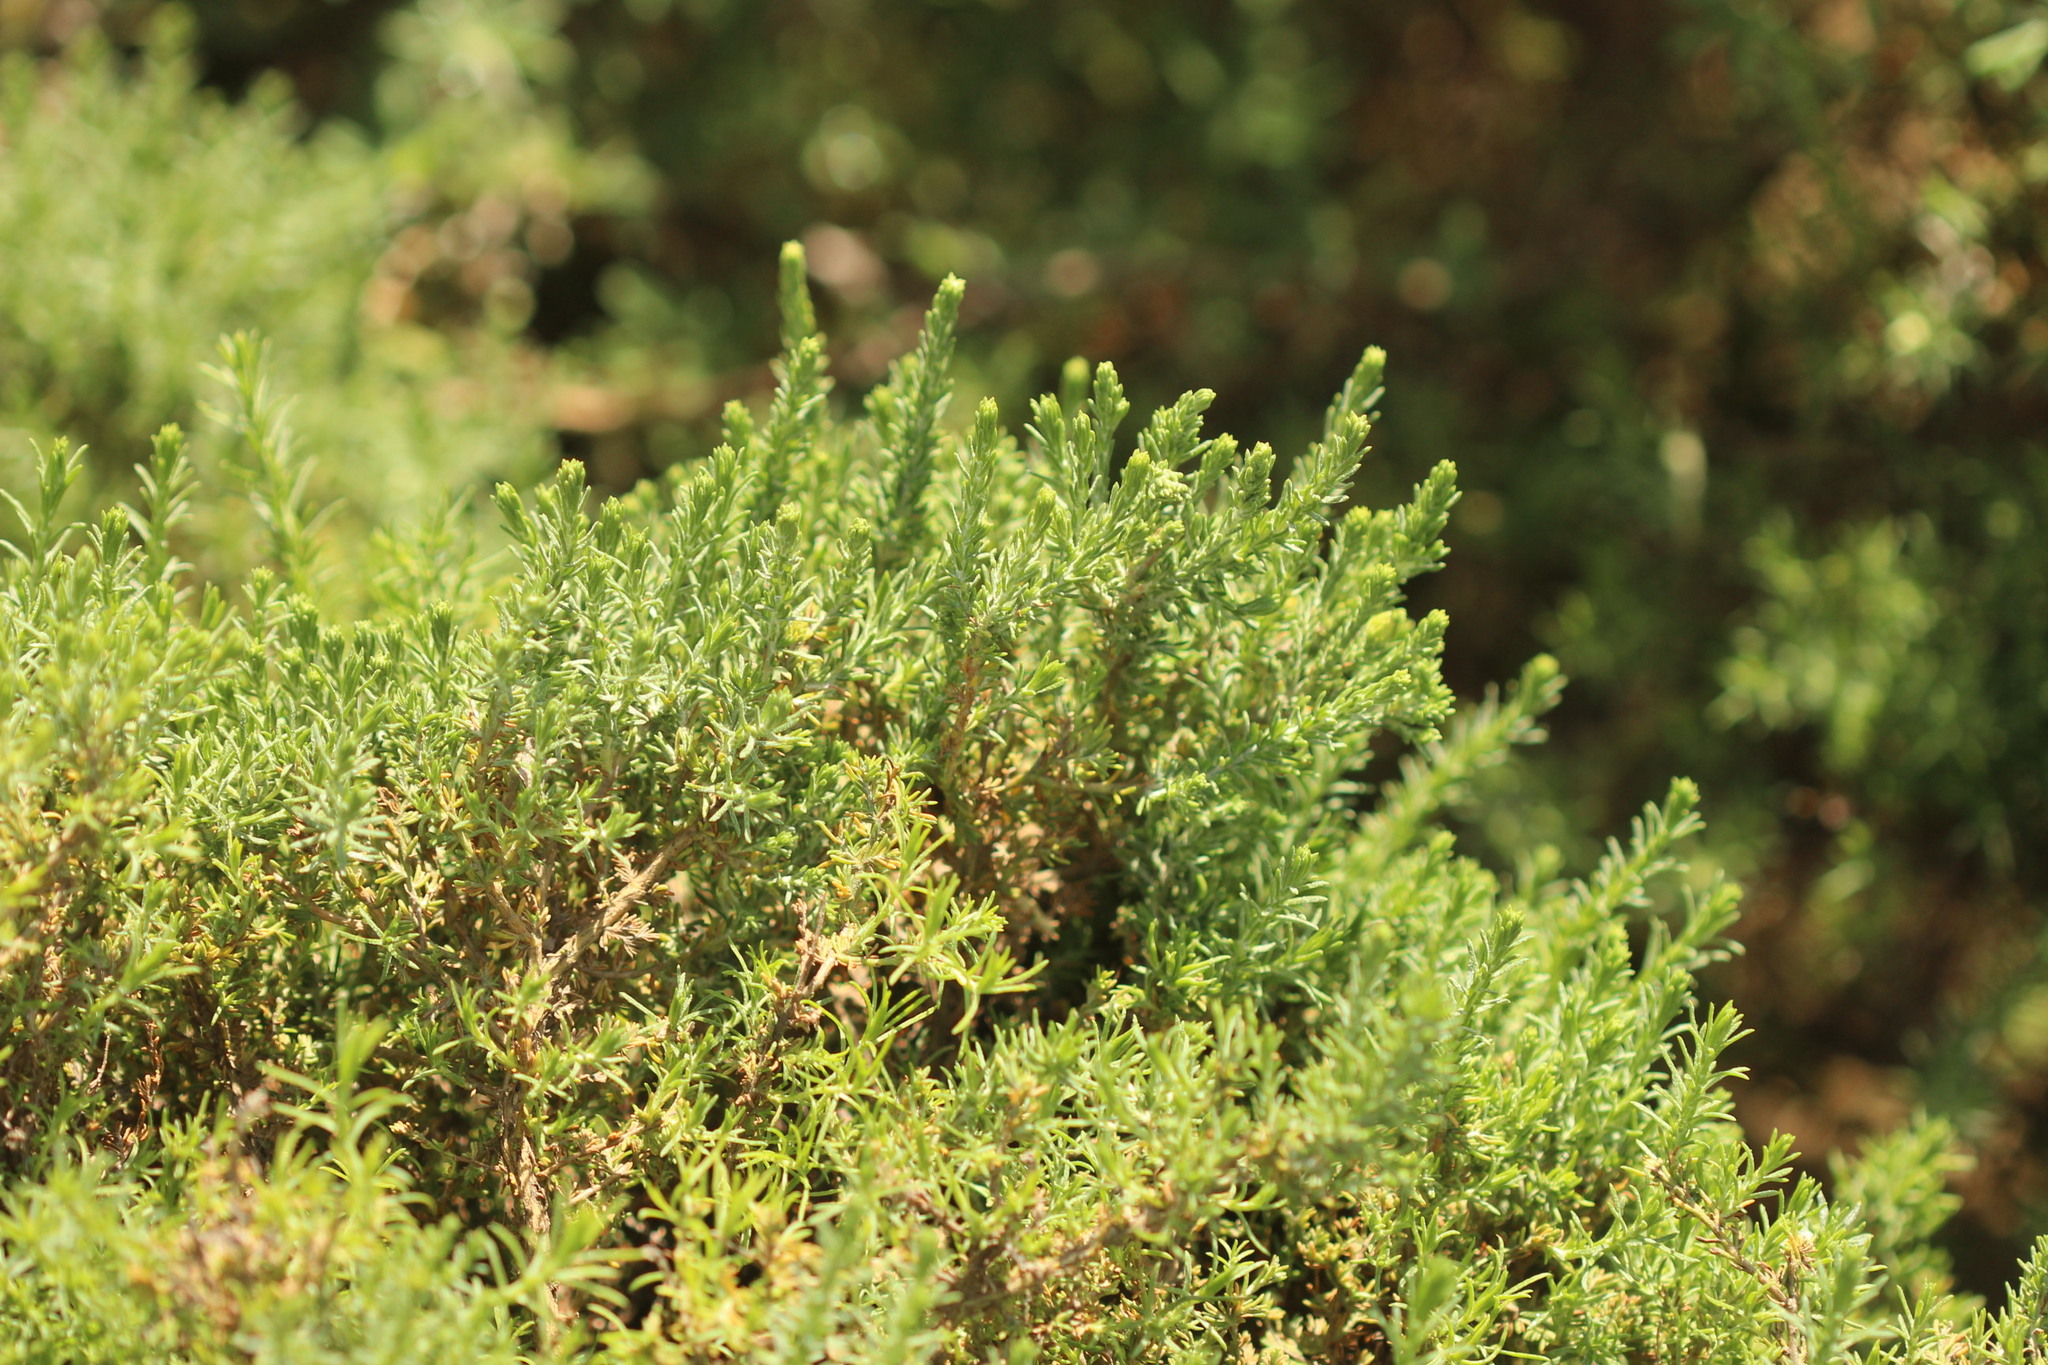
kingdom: Plantae
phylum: Tracheophyta
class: Magnoliopsida
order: Asterales
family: Asteraceae
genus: Ericameria
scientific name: Ericameria ericoides
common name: California goldenbush
